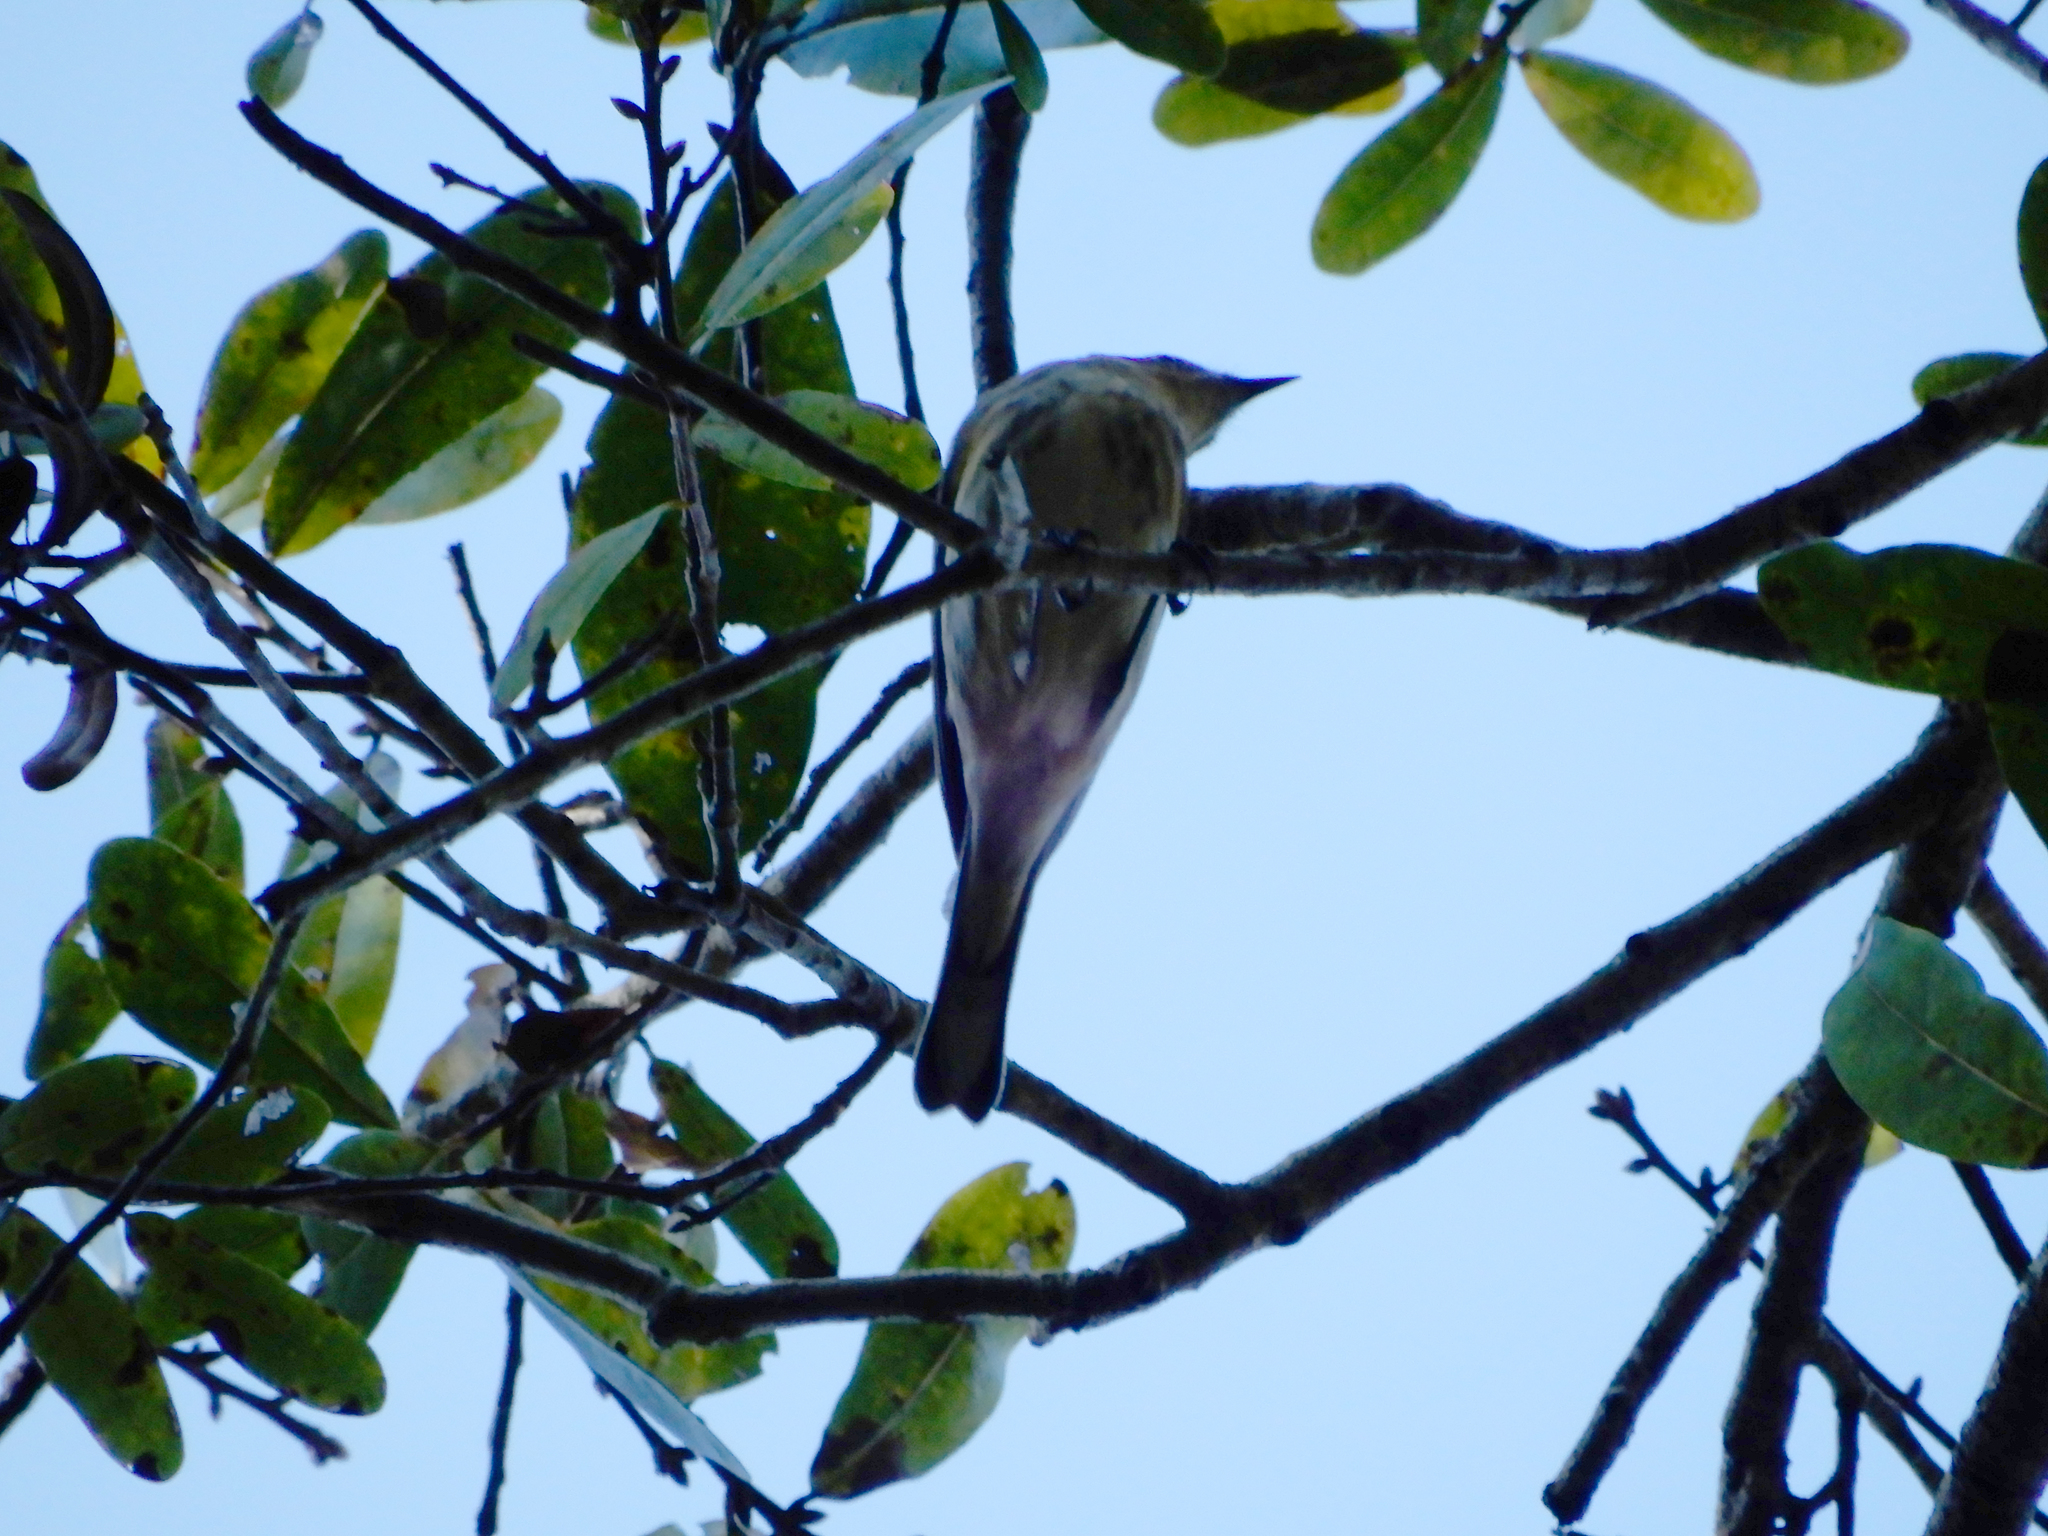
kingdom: Animalia
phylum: Chordata
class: Aves
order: Passeriformes
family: Parulidae
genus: Setophaga
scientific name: Setophaga coronata
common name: Myrtle warbler
